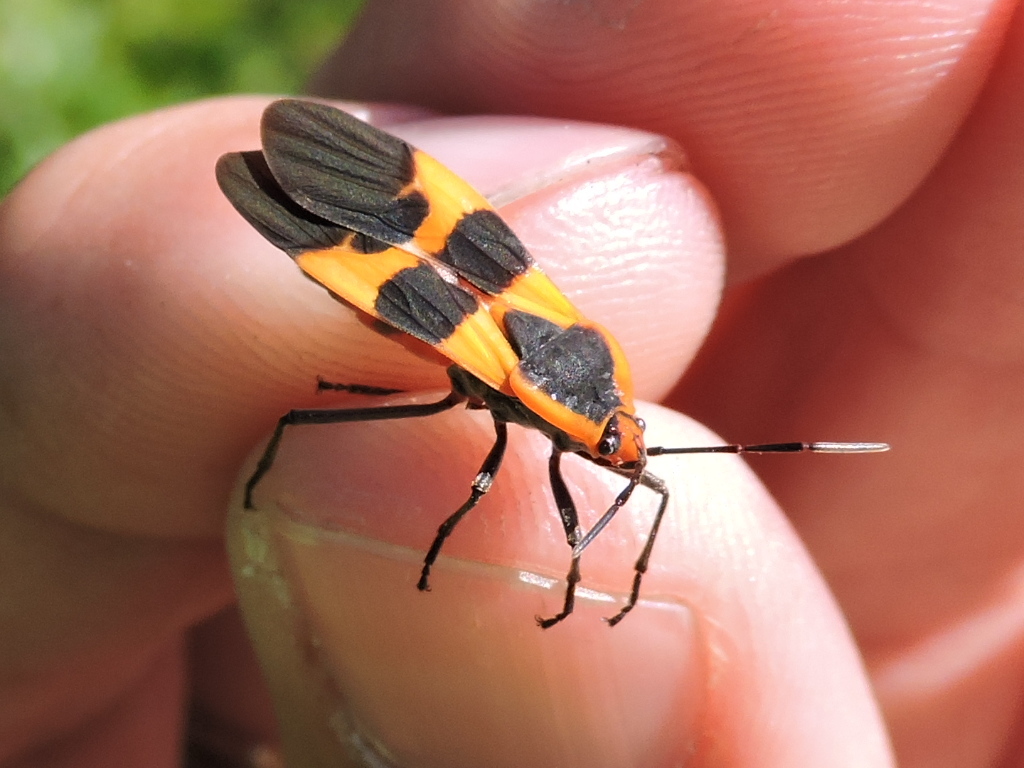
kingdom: Animalia
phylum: Arthropoda
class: Insecta
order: Hemiptera
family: Lygaeidae
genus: Oncopeltus
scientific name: Oncopeltus fasciatus
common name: Large milkweed bug
